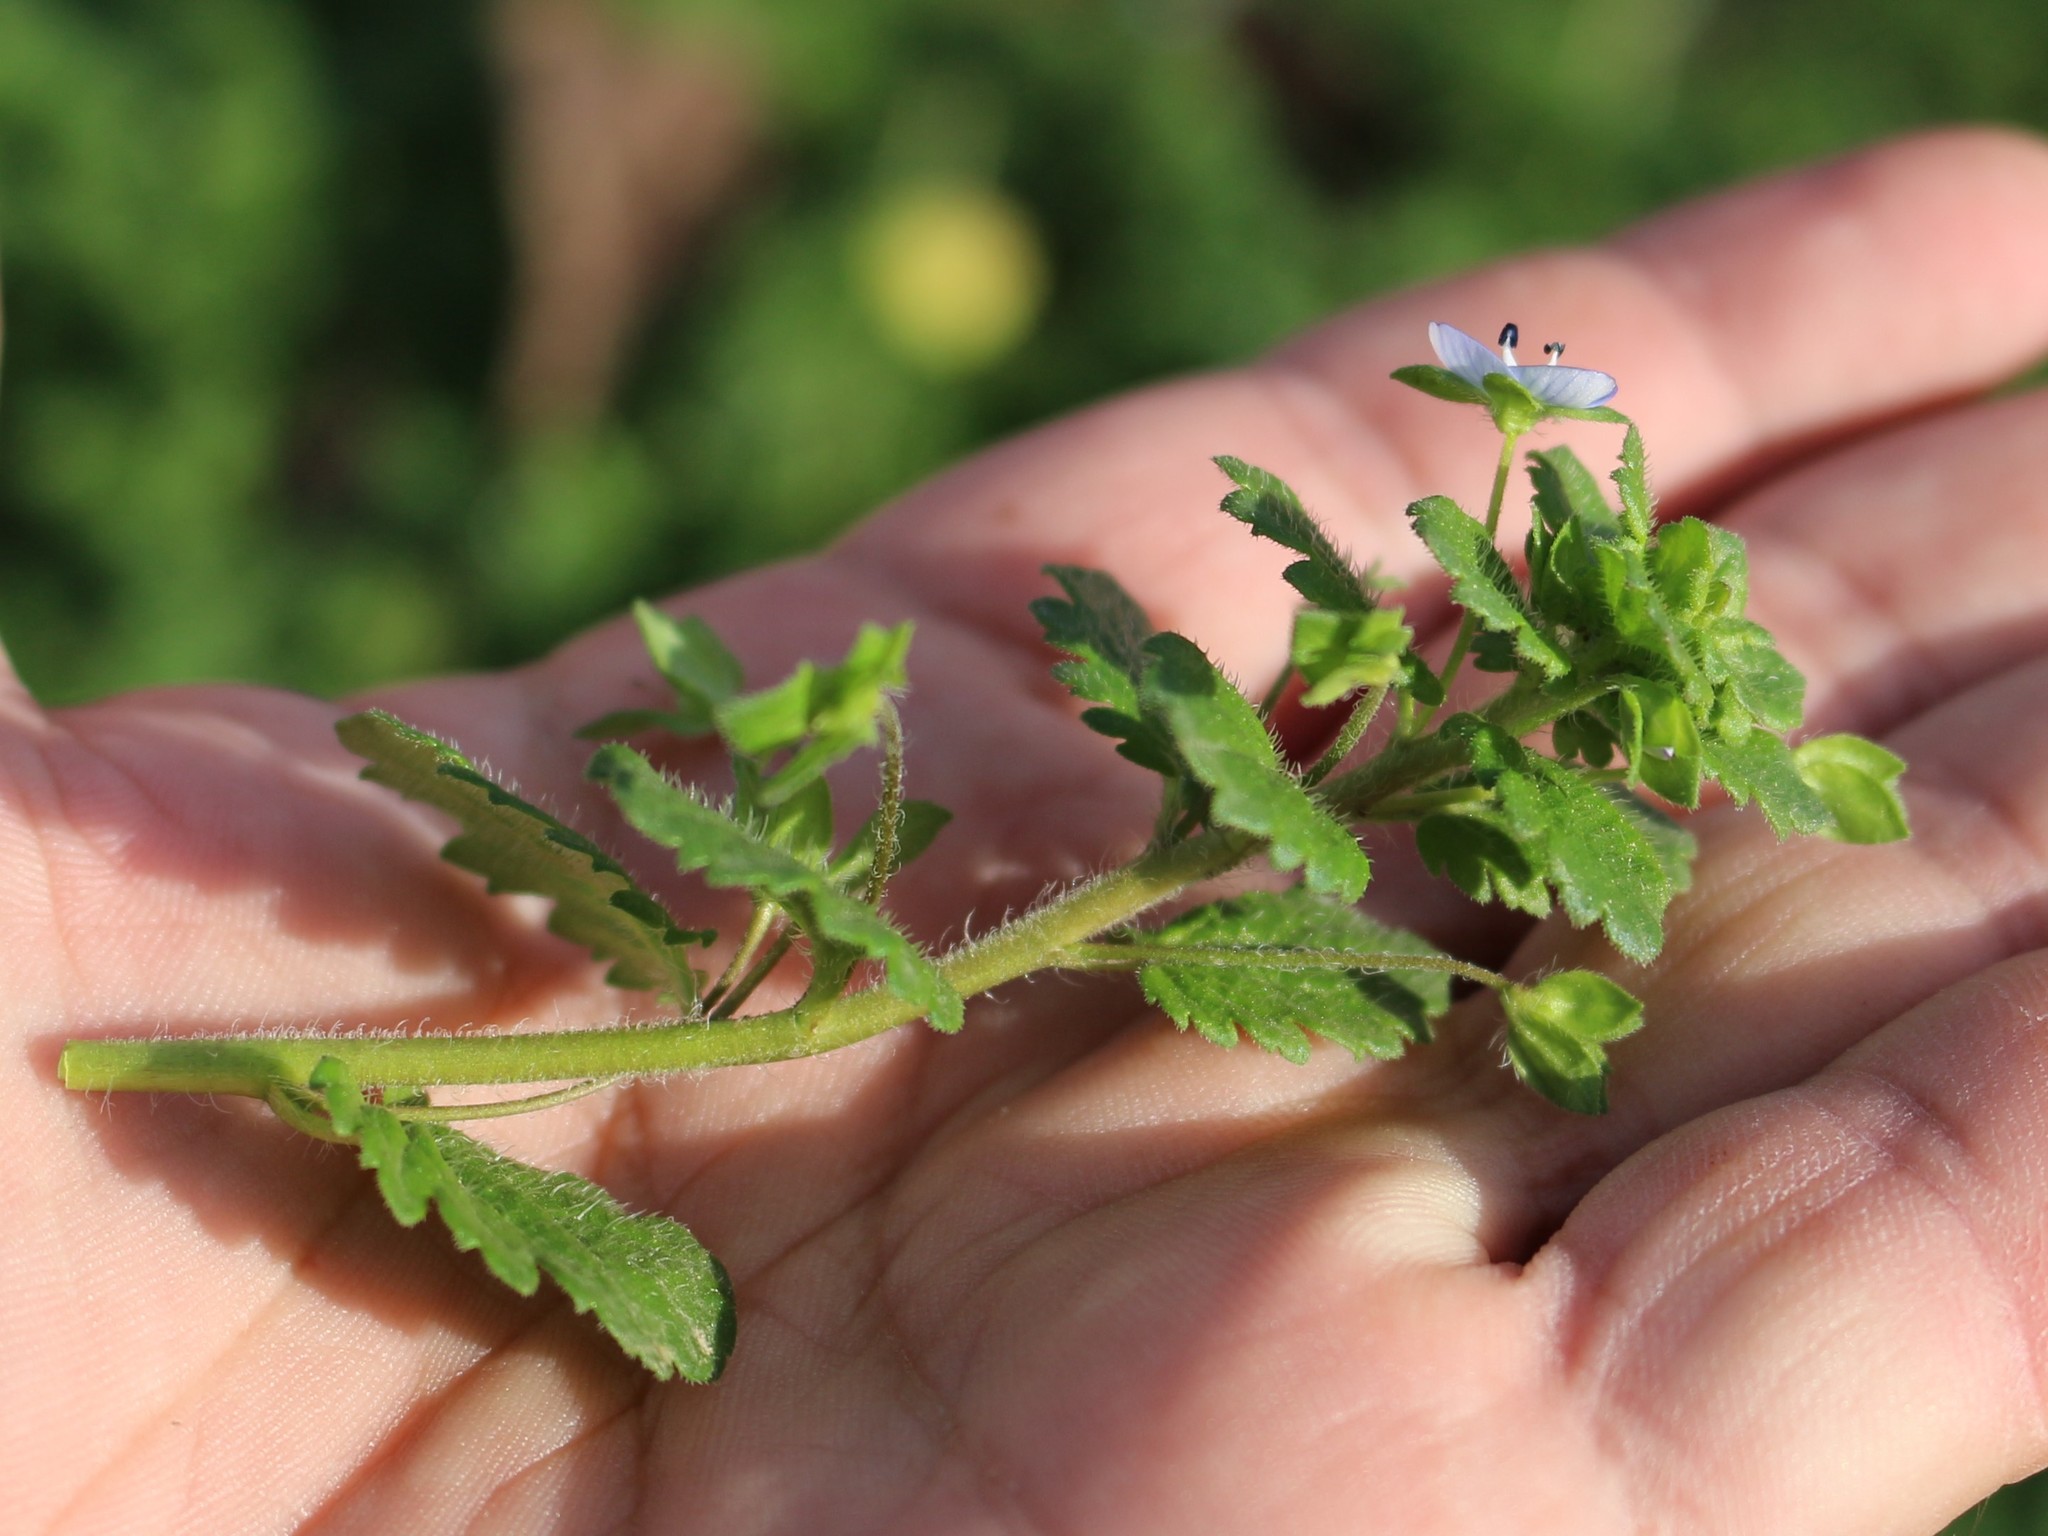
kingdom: Plantae
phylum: Tracheophyta
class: Magnoliopsida
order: Lamiales
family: Plantaginaceae
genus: Veronica
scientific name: Veronica persica
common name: Common field-speedwell
